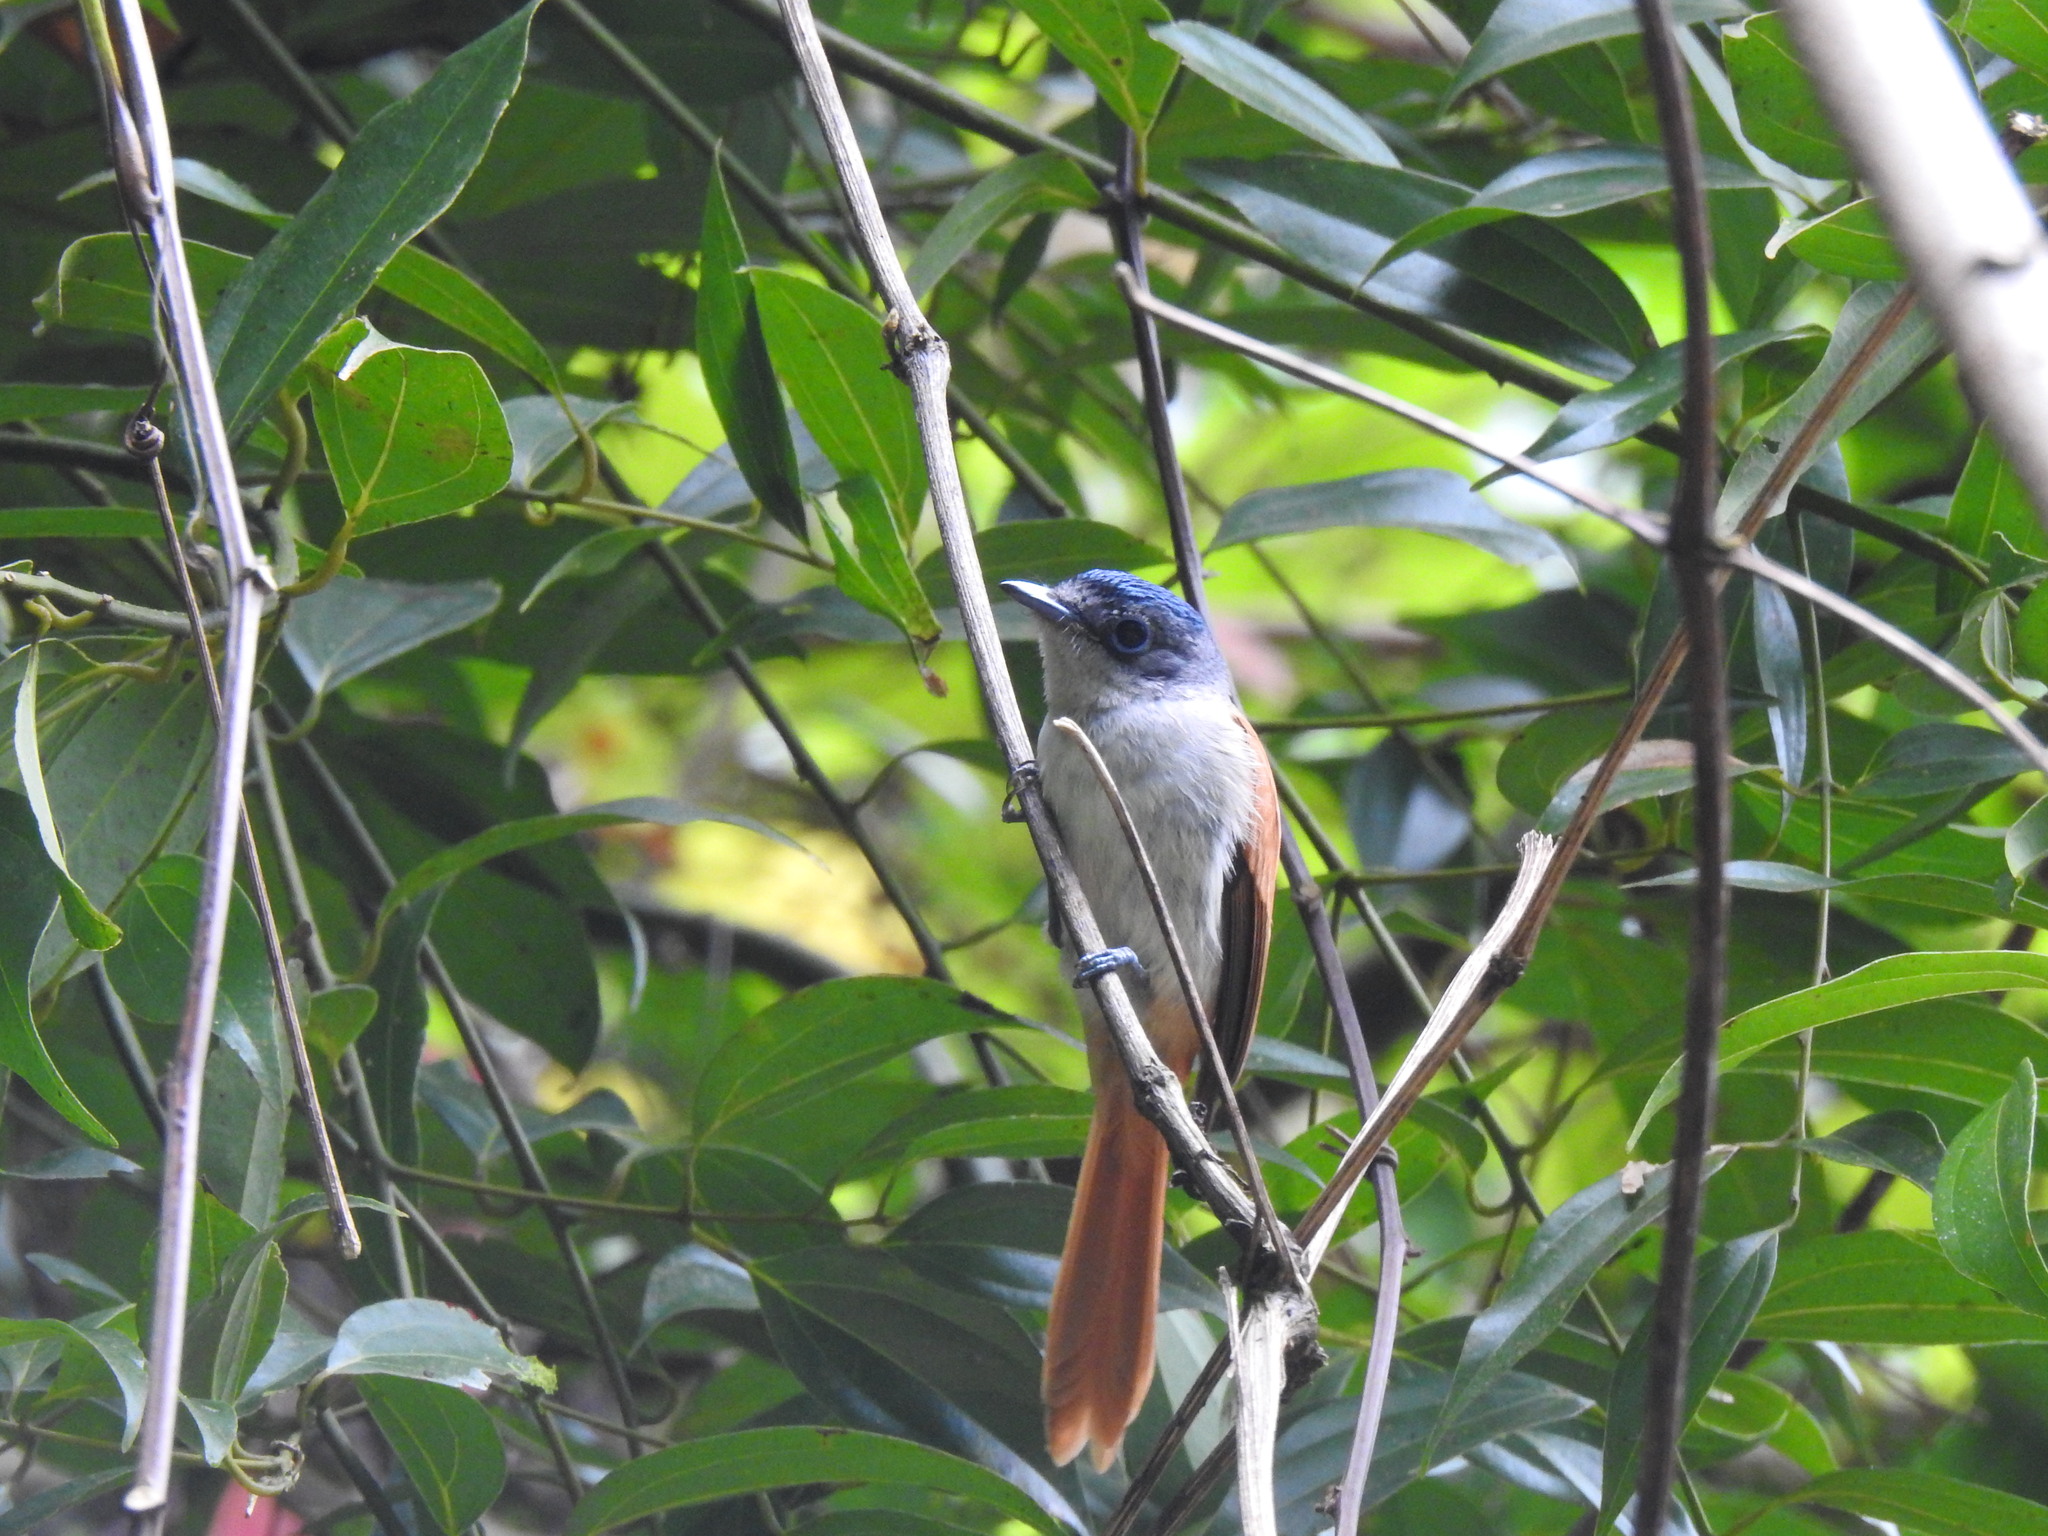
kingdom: Animalia
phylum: Chordata
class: Aves
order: Passeriformes
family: Monarchidae
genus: Terpsiphone
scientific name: Terpsiphone atrochalybeia
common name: Sao tome paradise flycatcher
